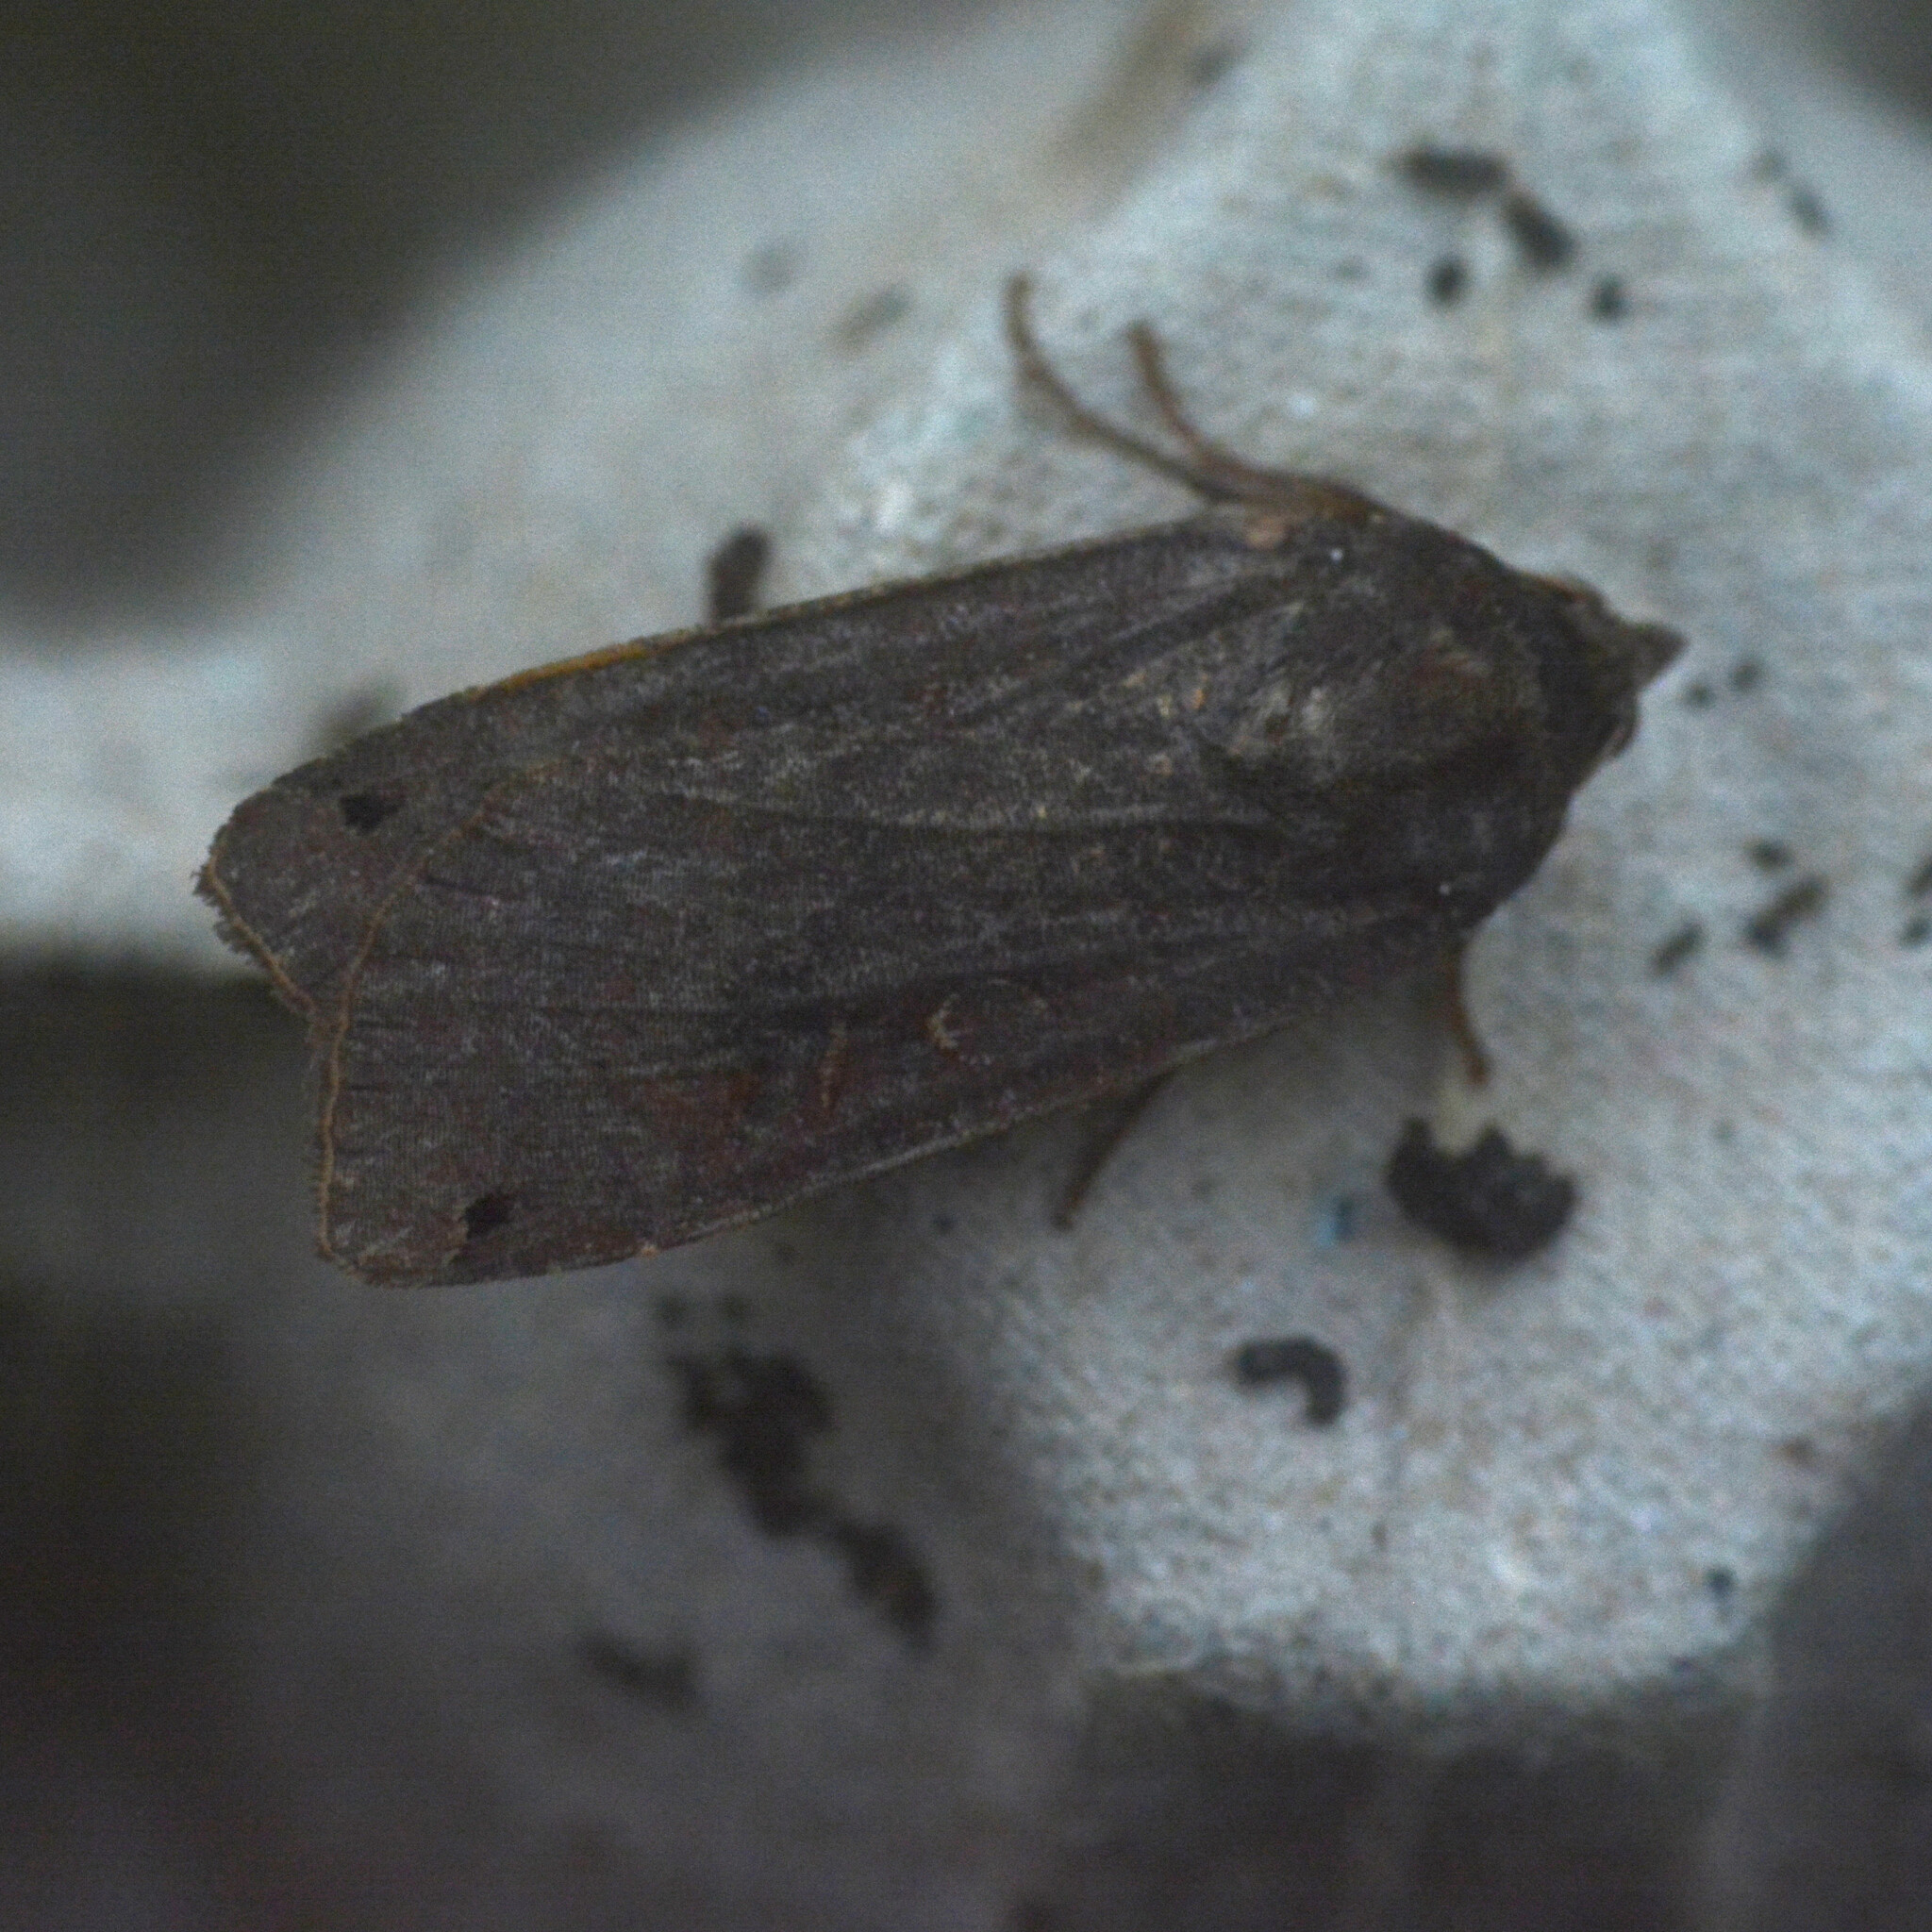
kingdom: Animalia
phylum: Arthropoda
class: Insecta
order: Lepidoptera
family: Noctuidae
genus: Noctua
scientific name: Noctua pronuba
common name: Large yellow underwing
